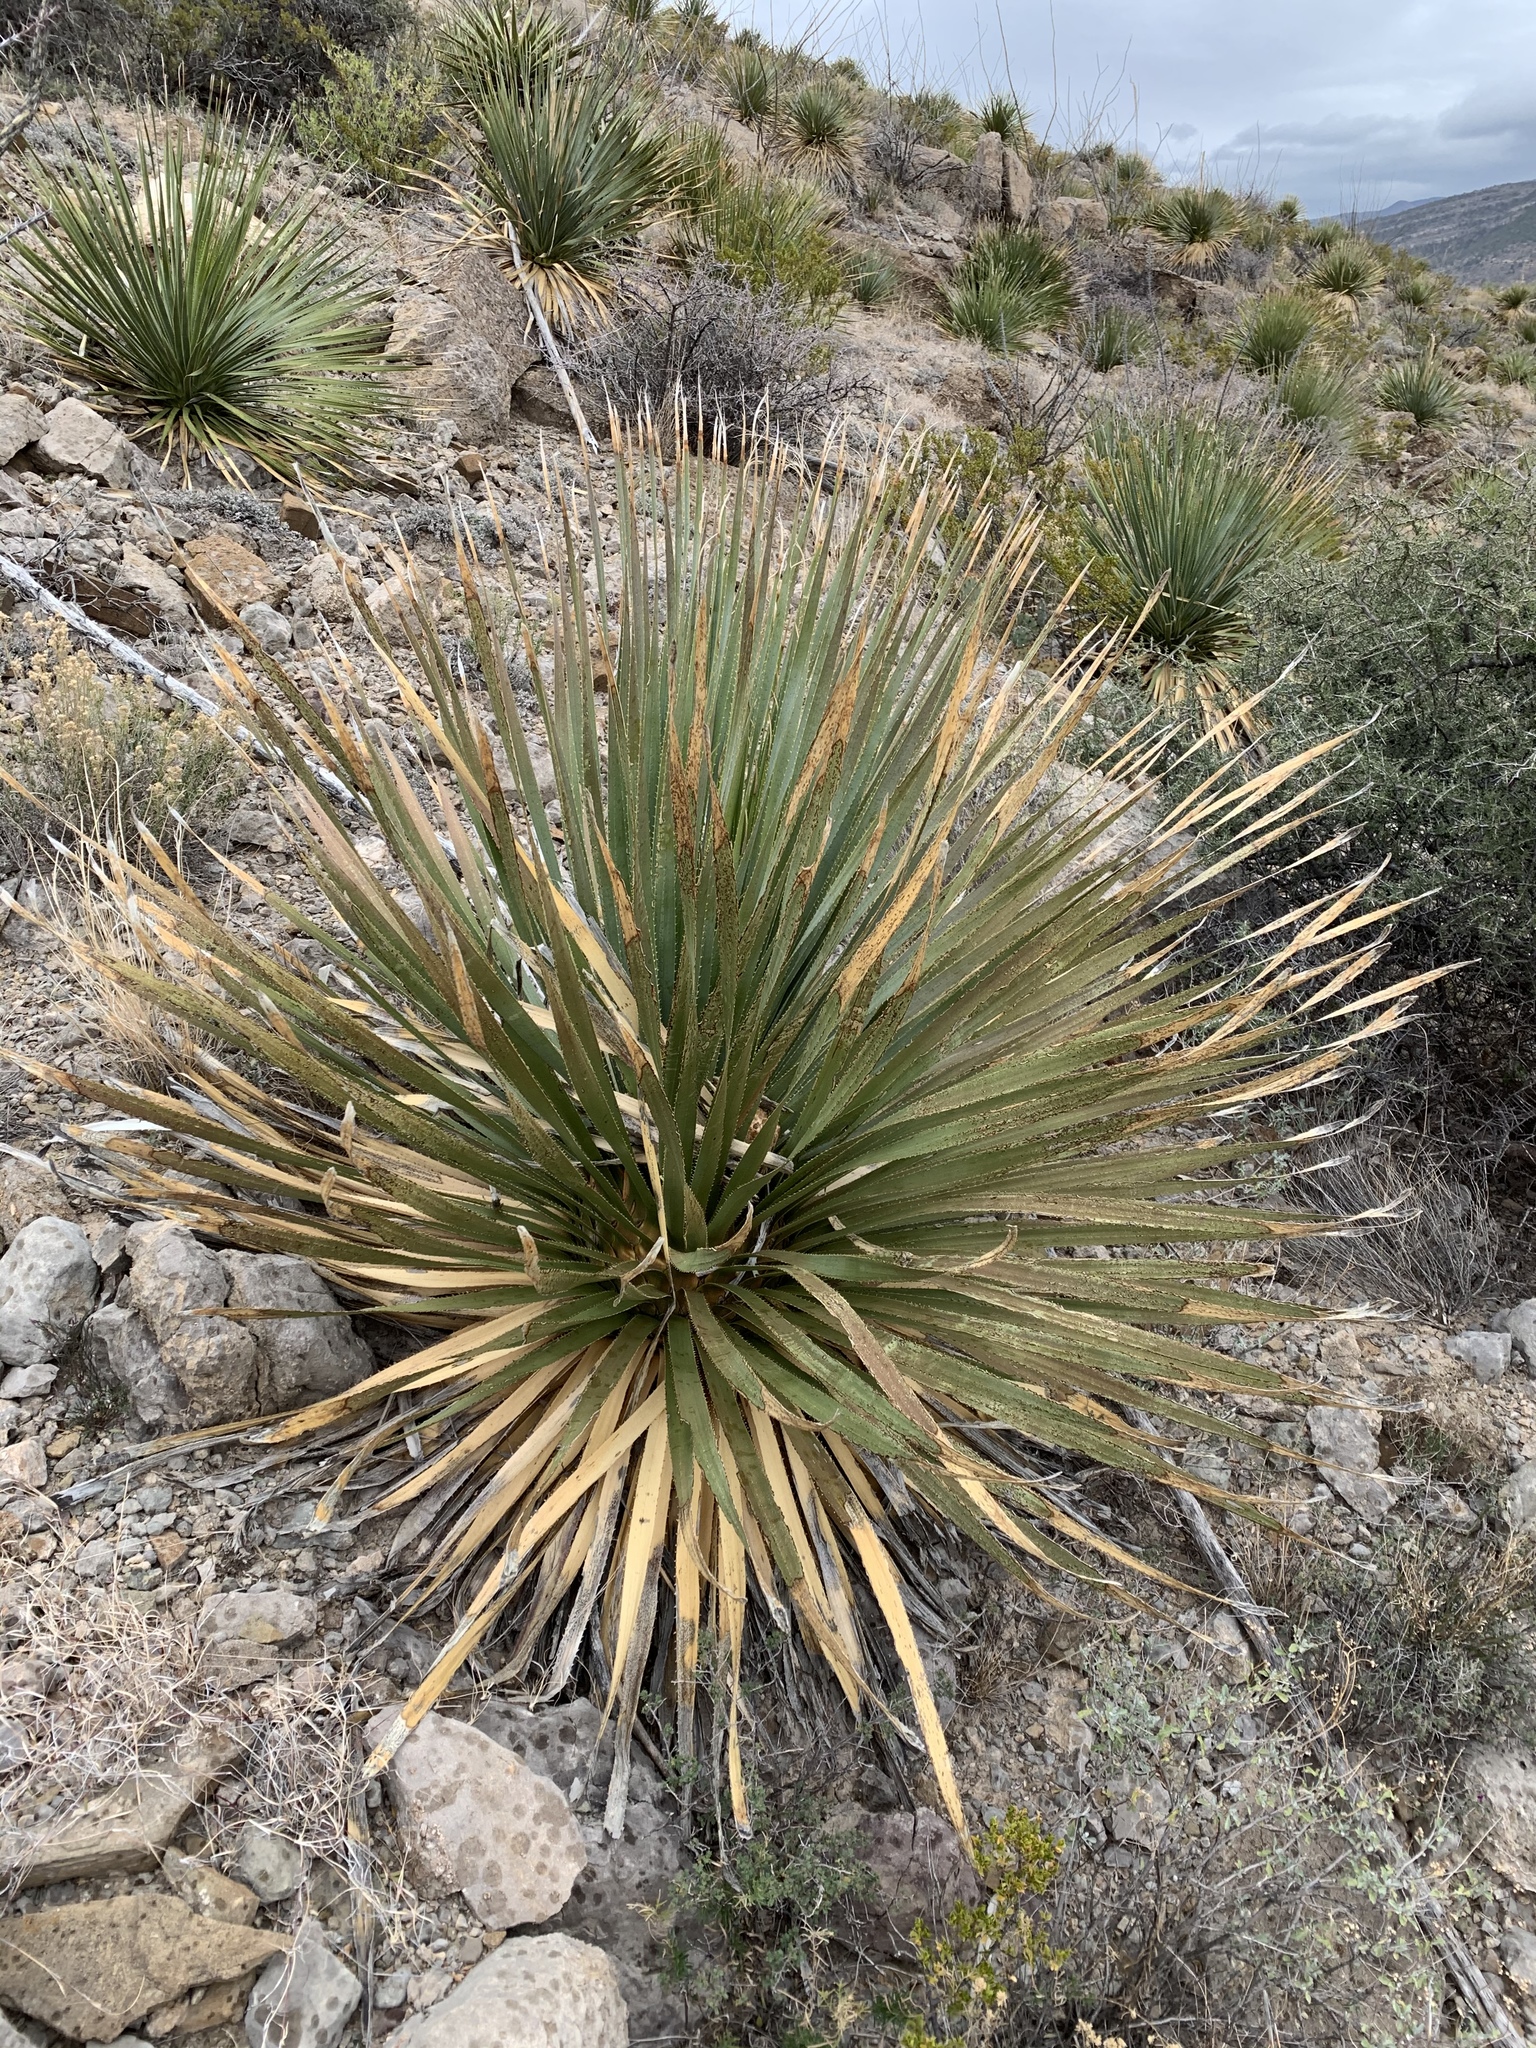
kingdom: Plantae
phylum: Tracheophyta
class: Liliopsida
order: Asparagales
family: Asparagaceae
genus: Dasylirion
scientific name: Dasylirion wheeleri
